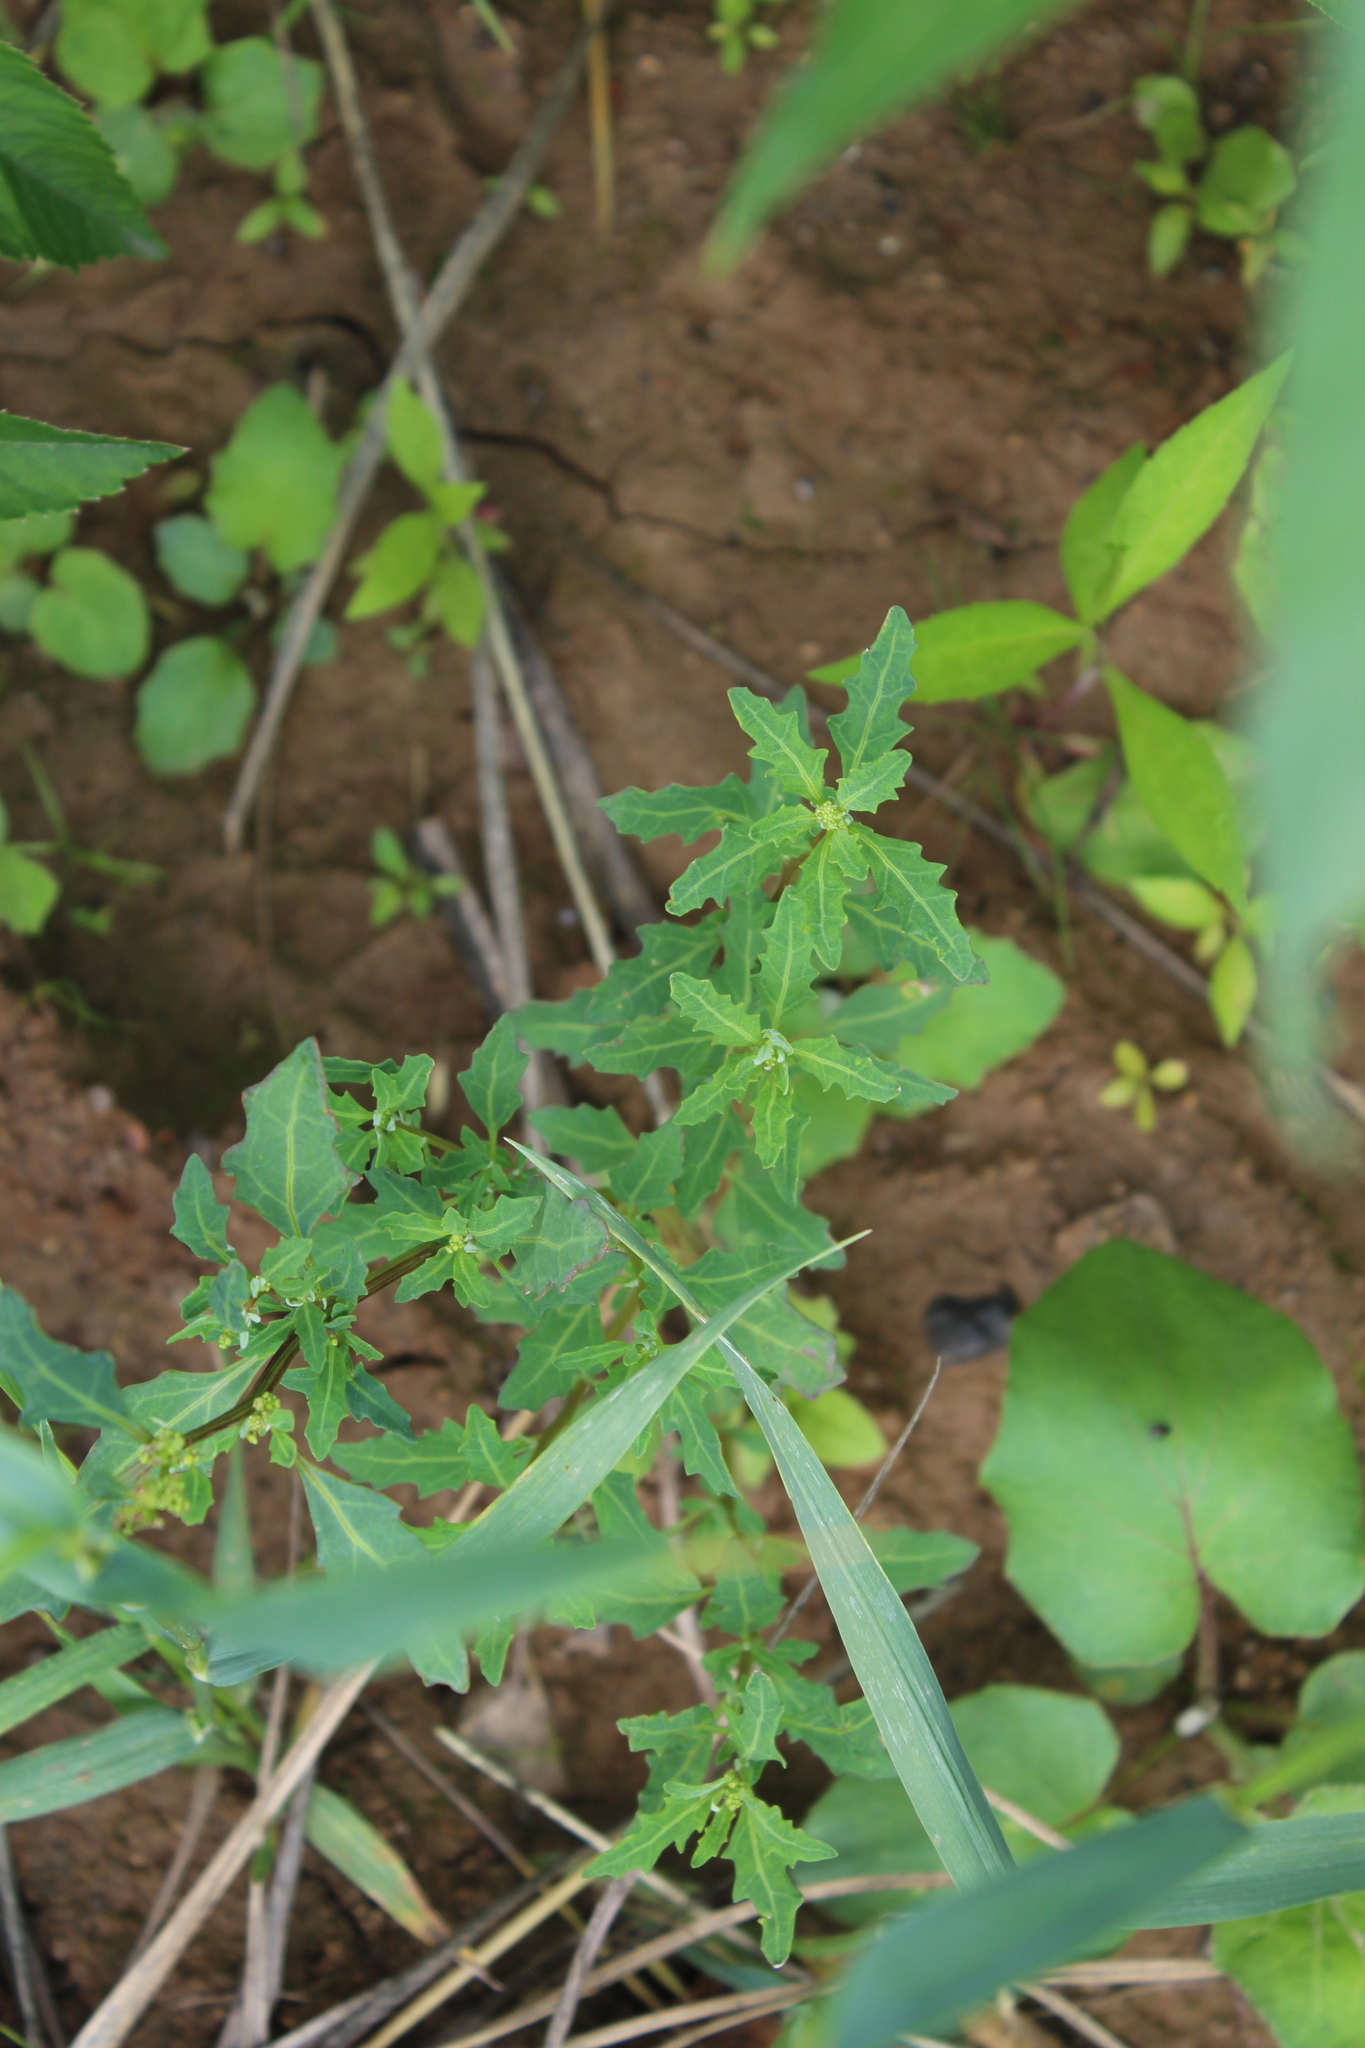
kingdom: Plantae
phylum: Tracheophyta
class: Magnoliopsida
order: Caryophyllales
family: Amaranthaceae
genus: Oxybasis
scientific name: Oxybasis glauca
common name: Glaucous goosefoot
